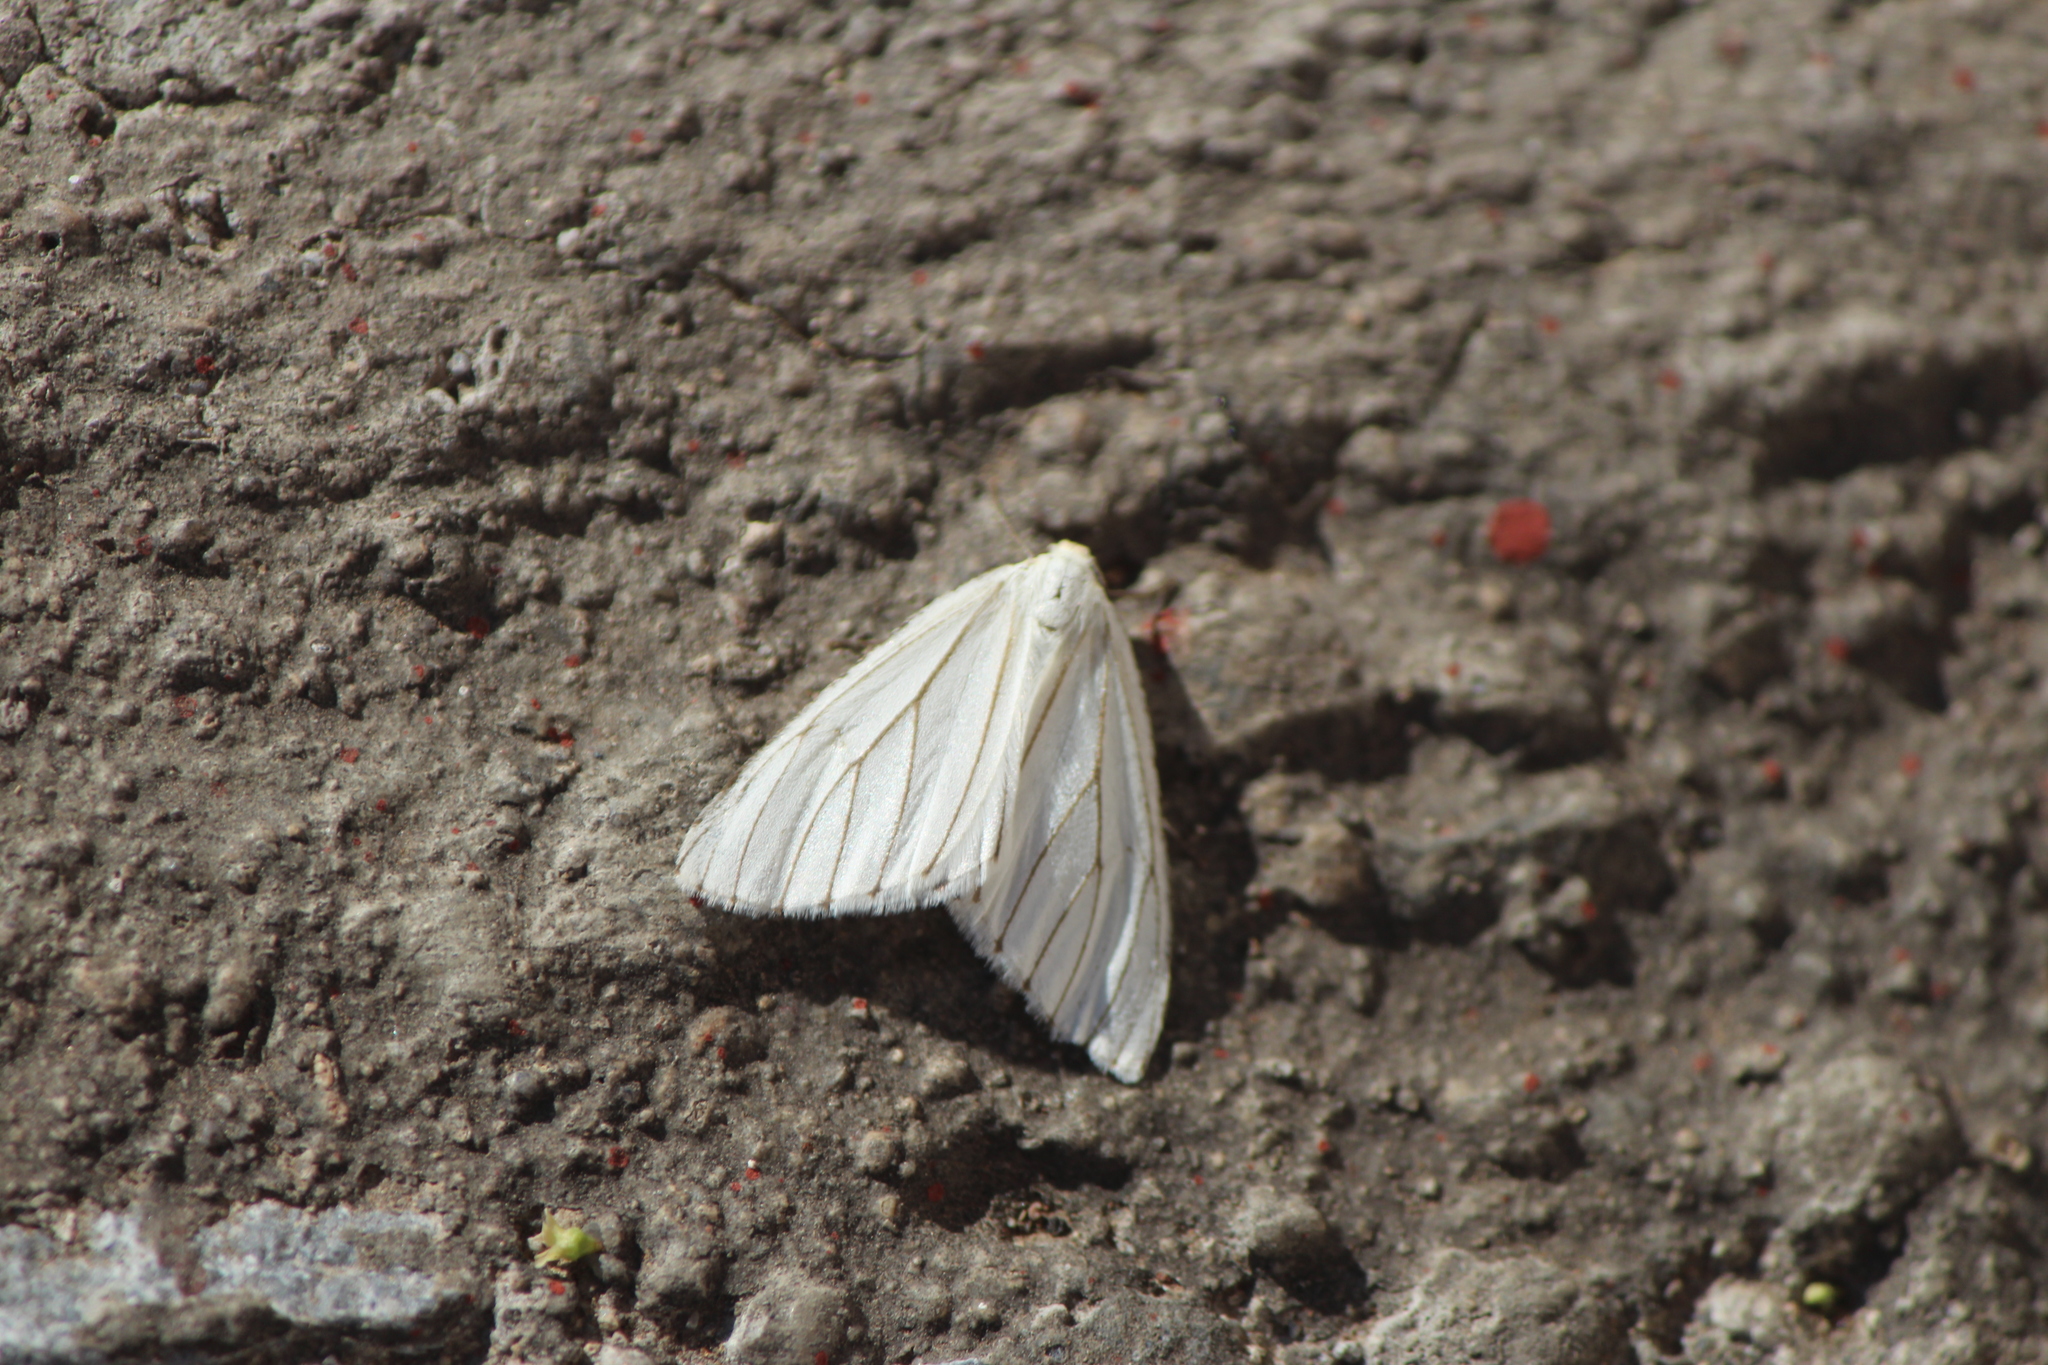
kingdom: Animalia
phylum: Arthropoda
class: Insecta
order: Lepidoptera
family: Geometridae
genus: Neuromelia
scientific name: Neuromelia selectata
